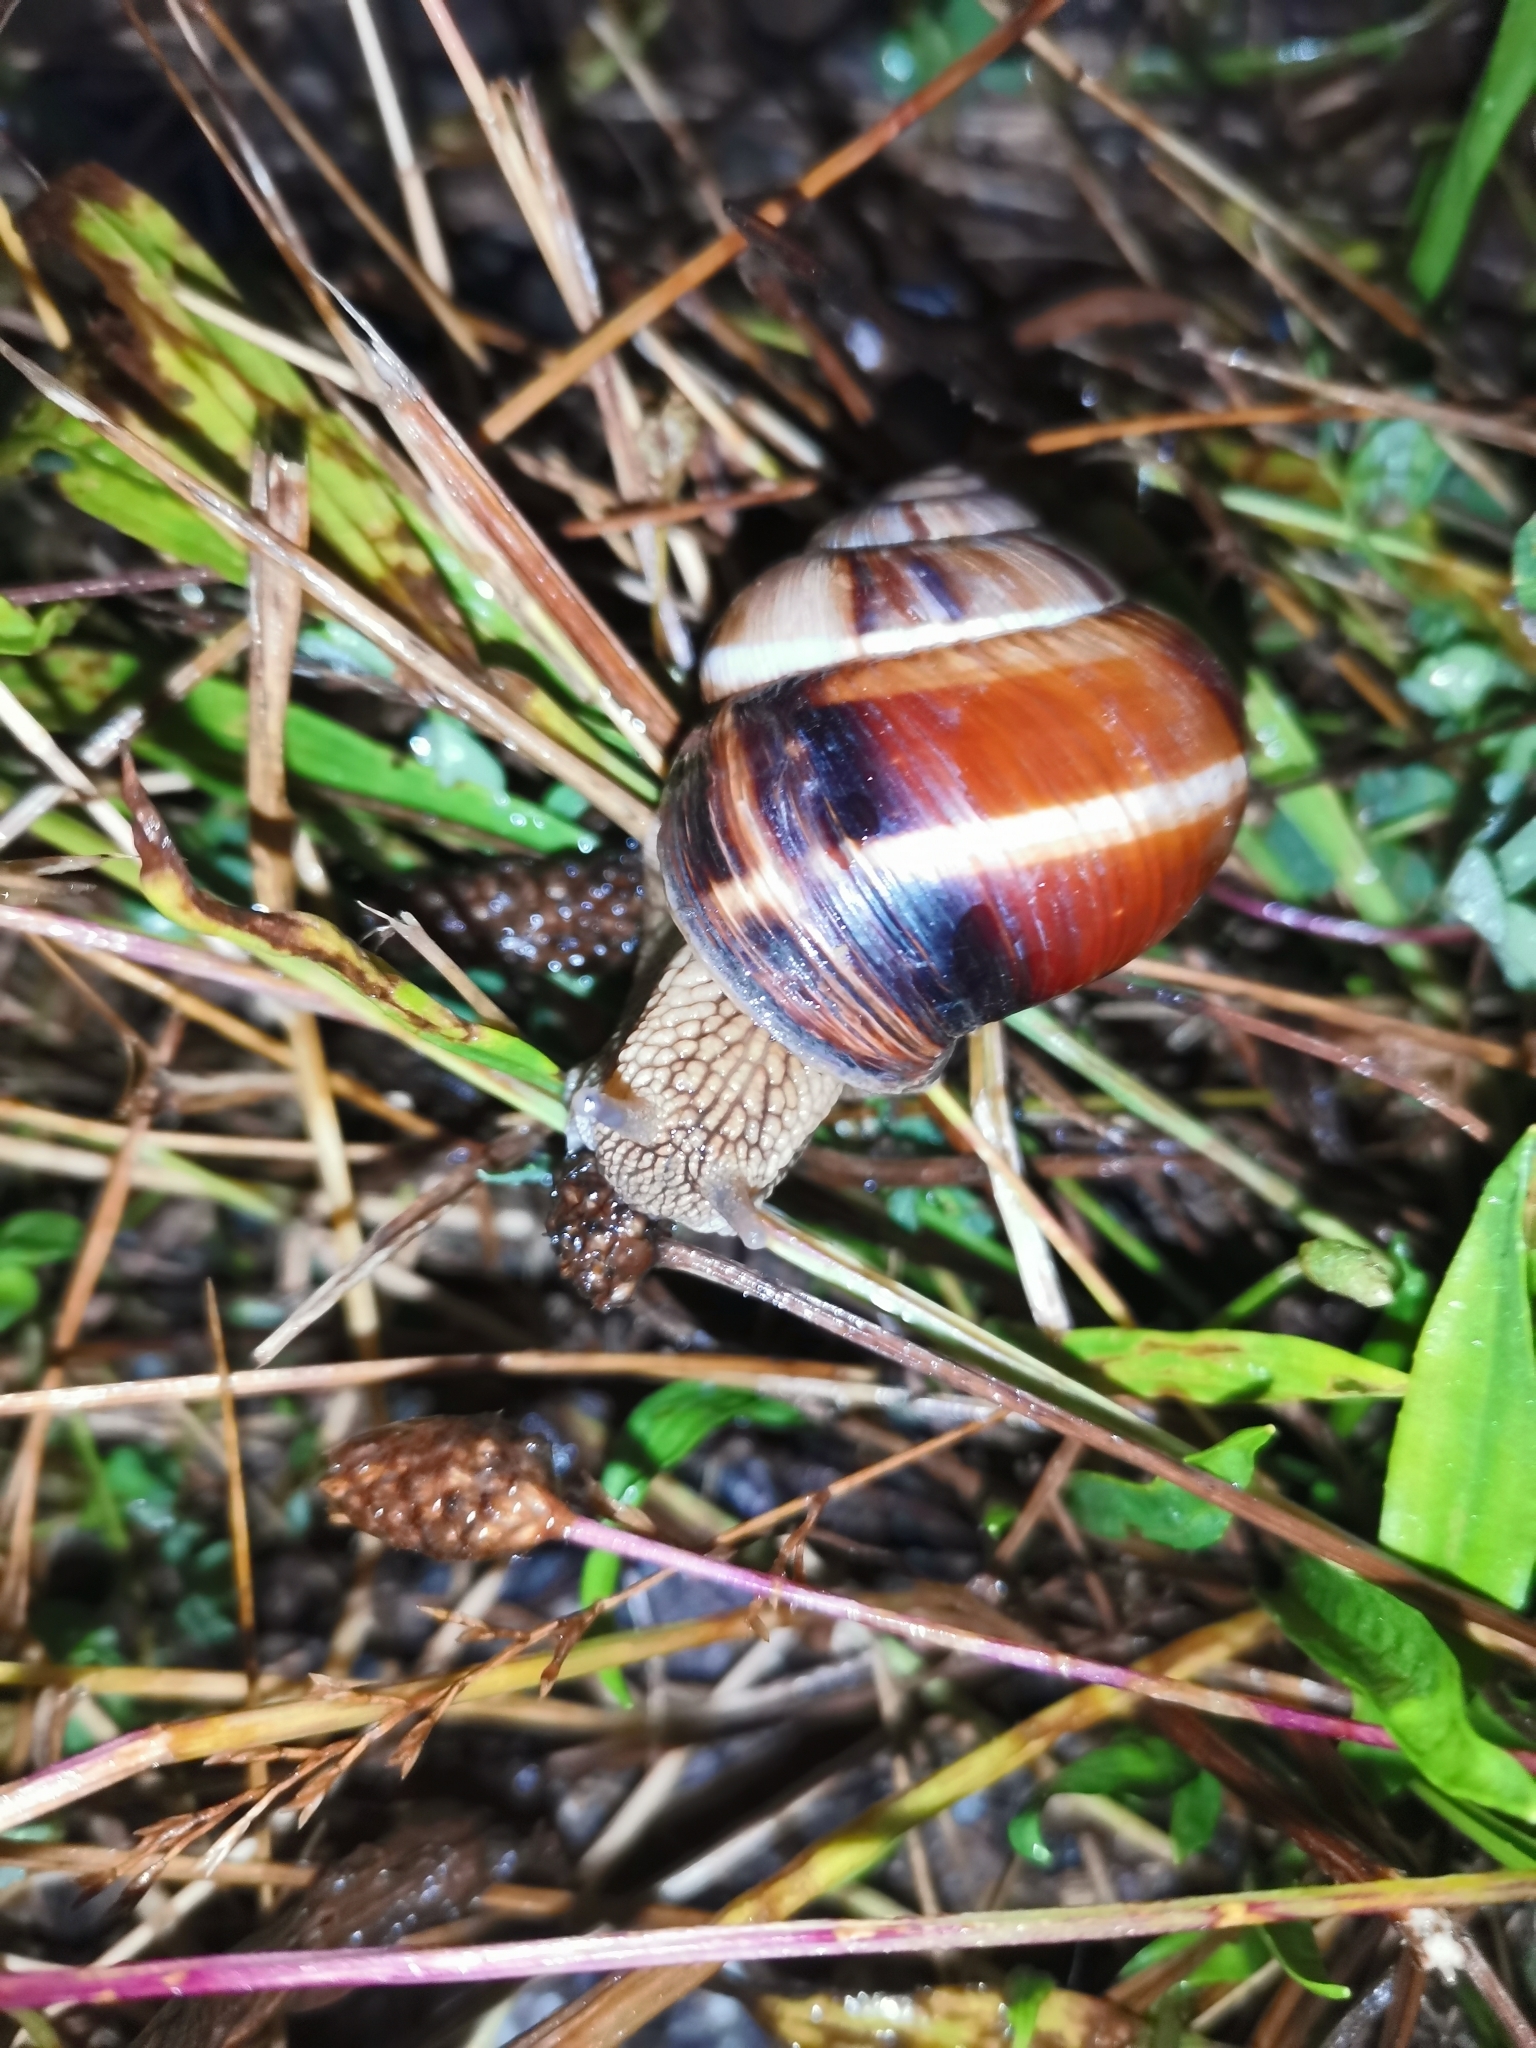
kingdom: Animalia
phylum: Mollusca
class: Gastropoda
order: Stylommatophora
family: Helicidae
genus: Helix
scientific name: Helix lucorum
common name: Turkish snail
